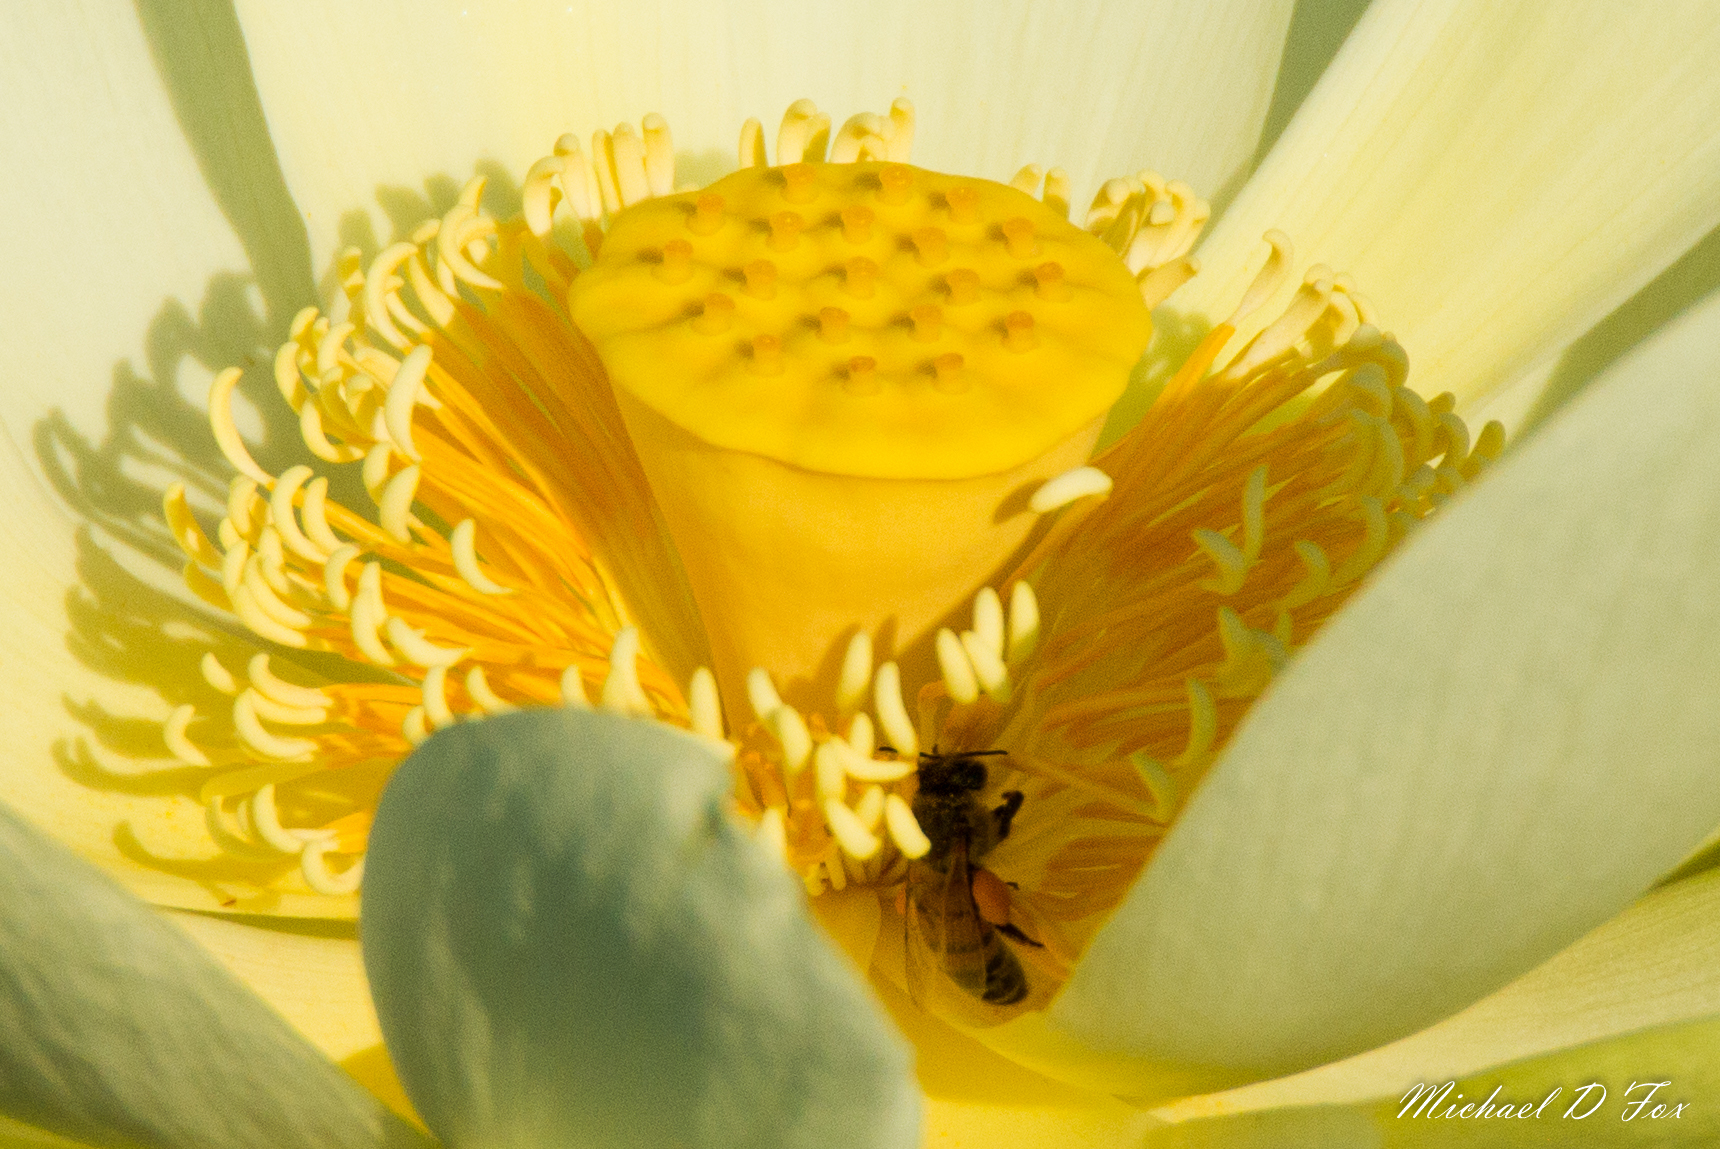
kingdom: Animalia
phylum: Arthropoda
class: Insecta
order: Hymenoptera
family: Apidae
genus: Apis
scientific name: Apis mellifera
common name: Honey bee
